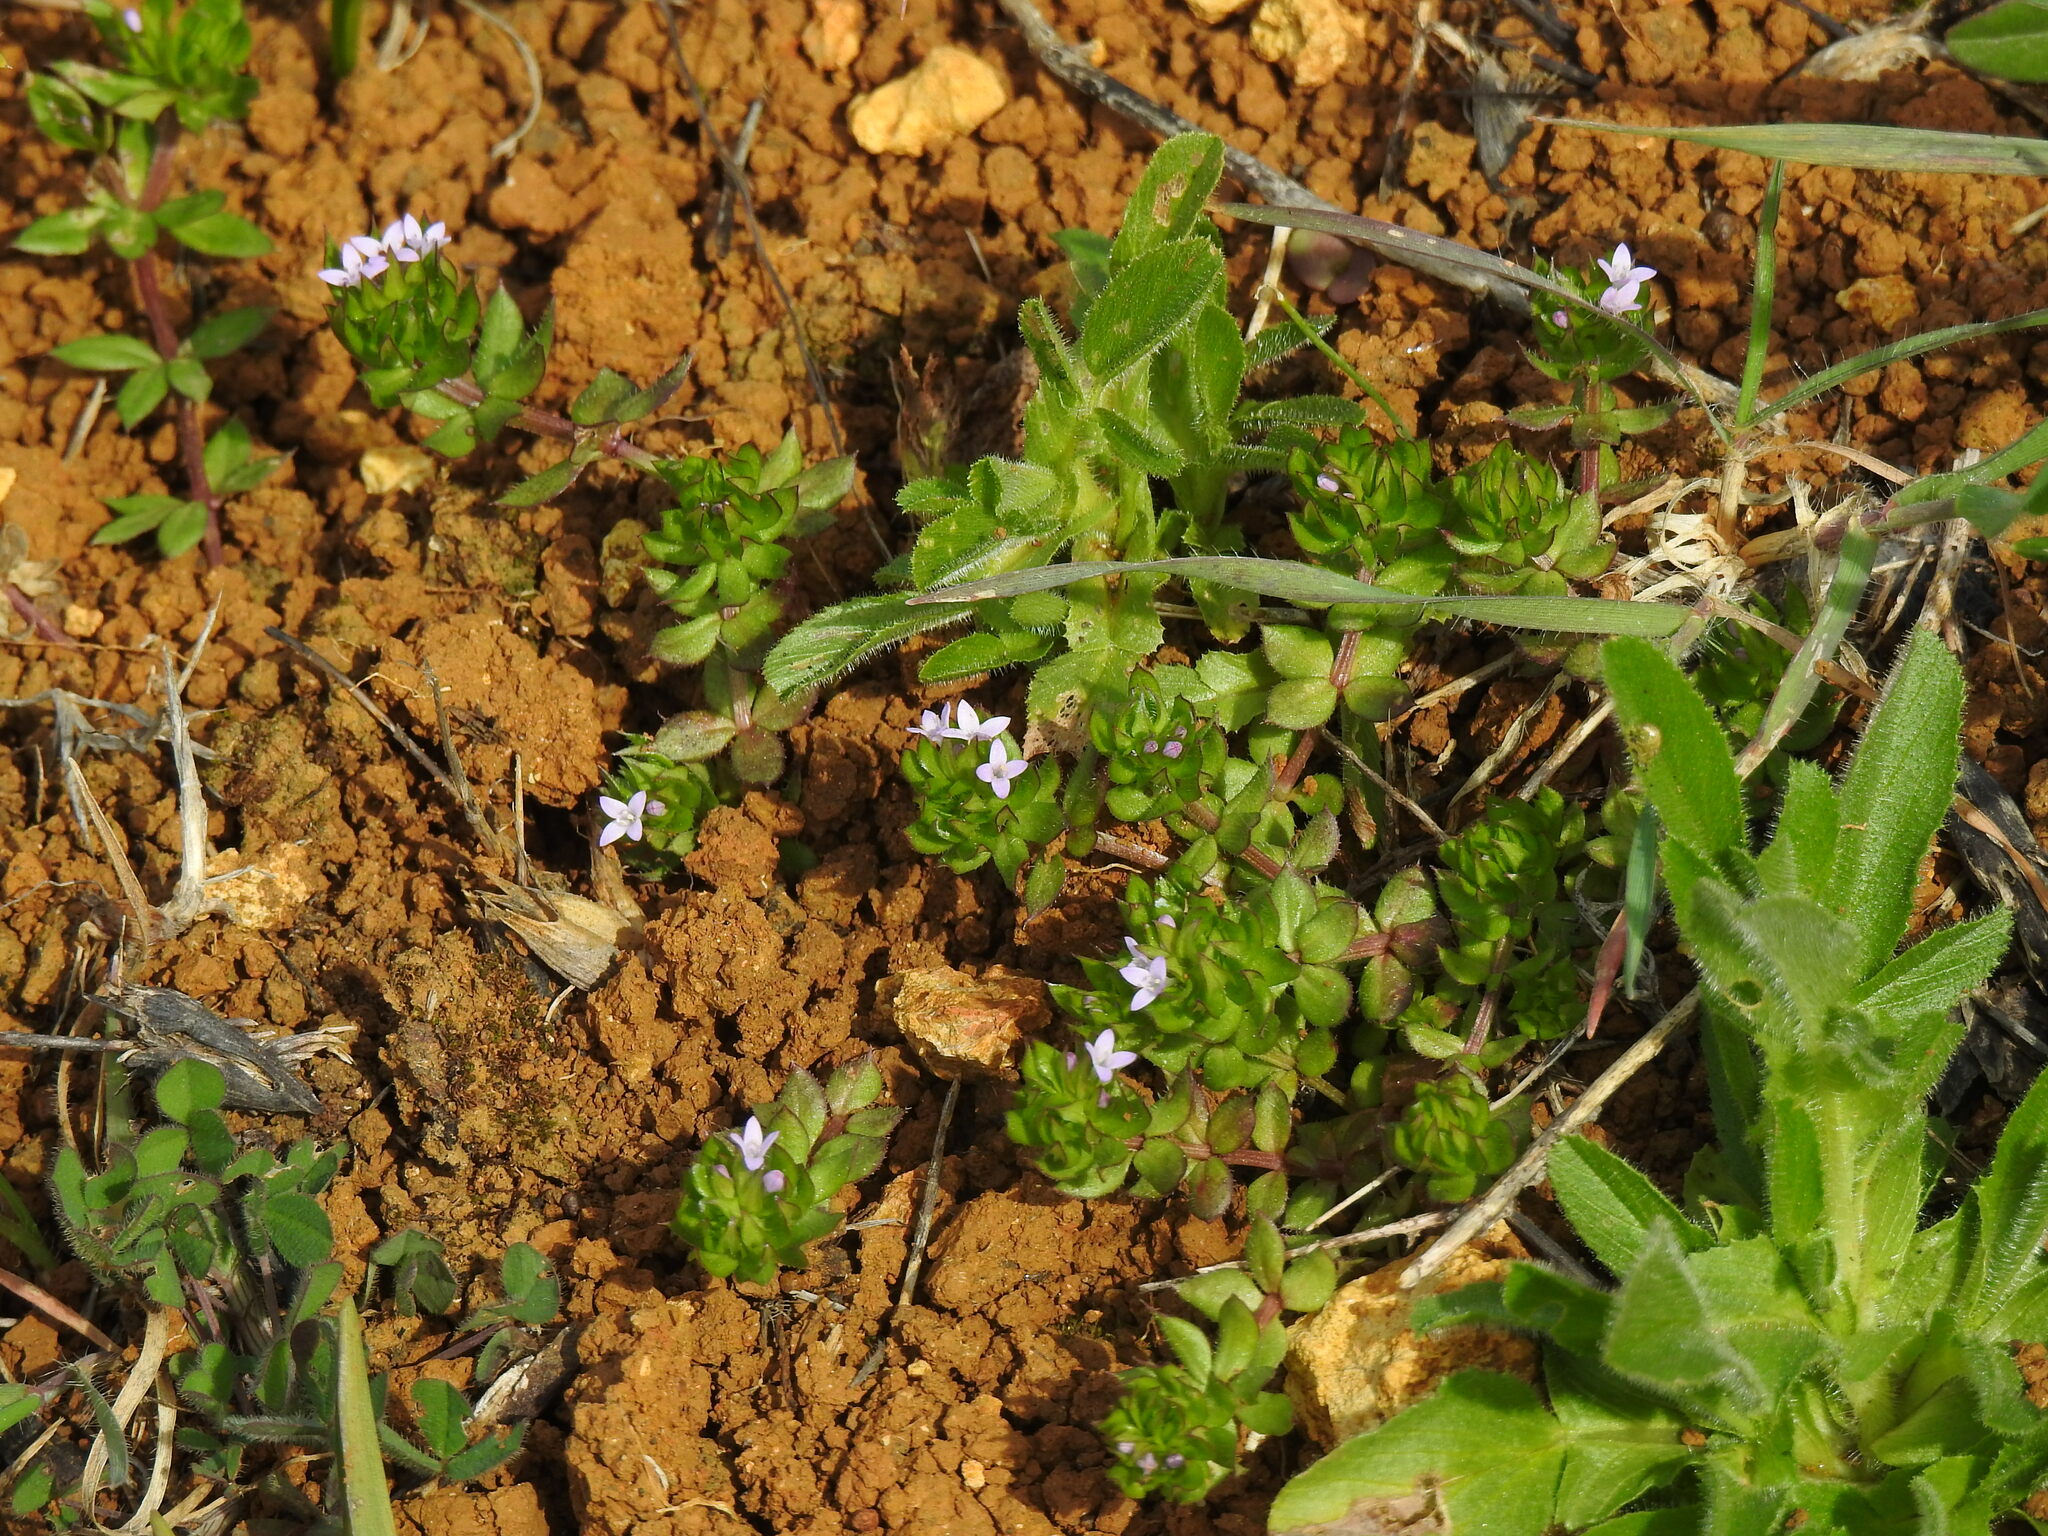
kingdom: Plantae
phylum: Tracheophyta
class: Magnoliopsida
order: Gentianales
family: Rubiaceae
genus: Sherardia
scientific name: Sherardia arvensis
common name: Field madder
